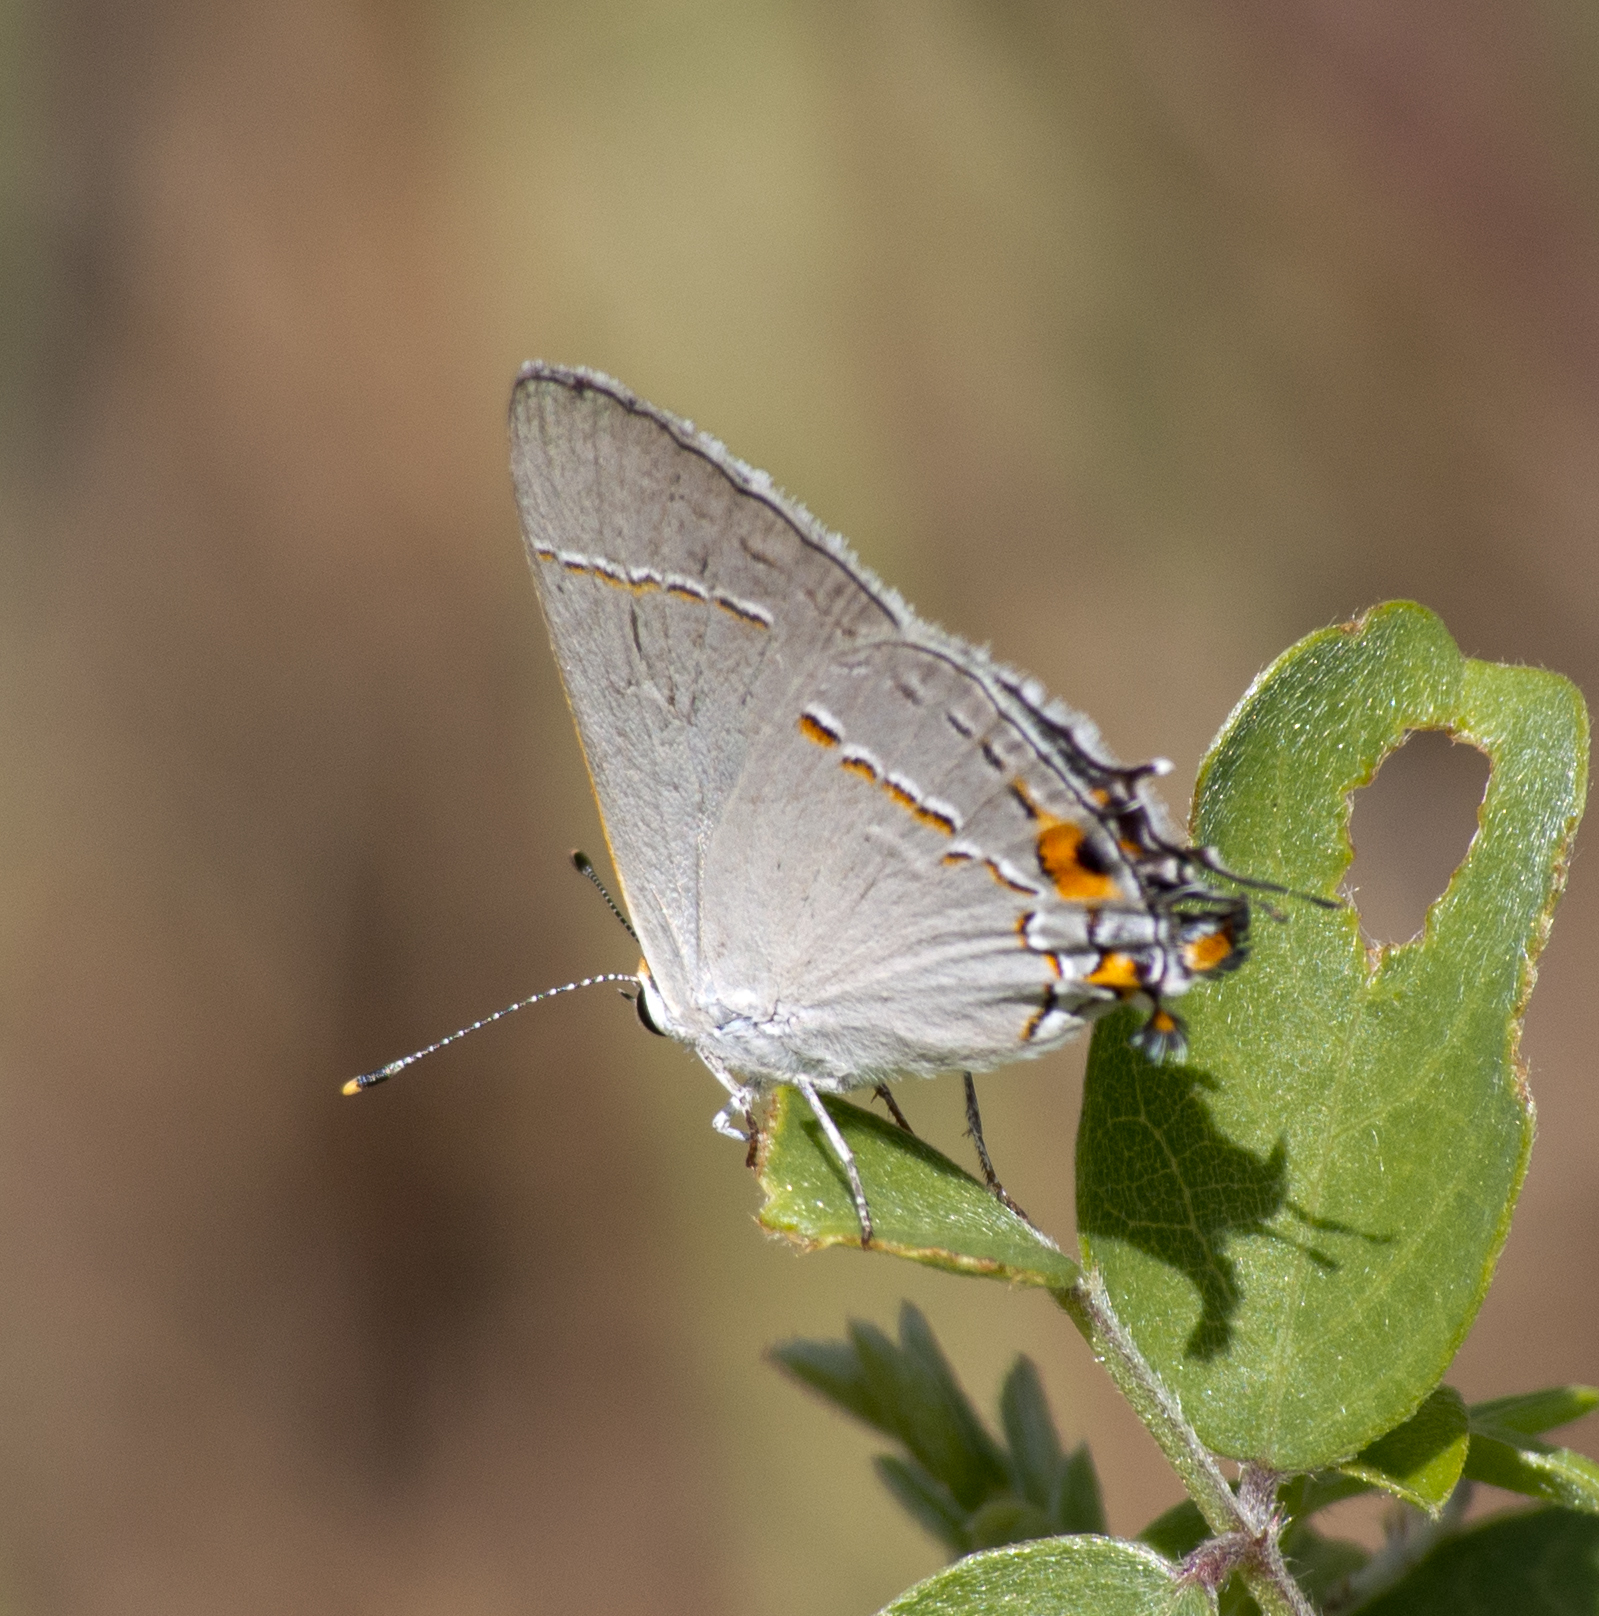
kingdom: Animalia
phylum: Arthropoda
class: Insecta
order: Lepidoptera
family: Lycaenidae
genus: Strymon
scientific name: Strymon melinus
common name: Gray hairstreak
